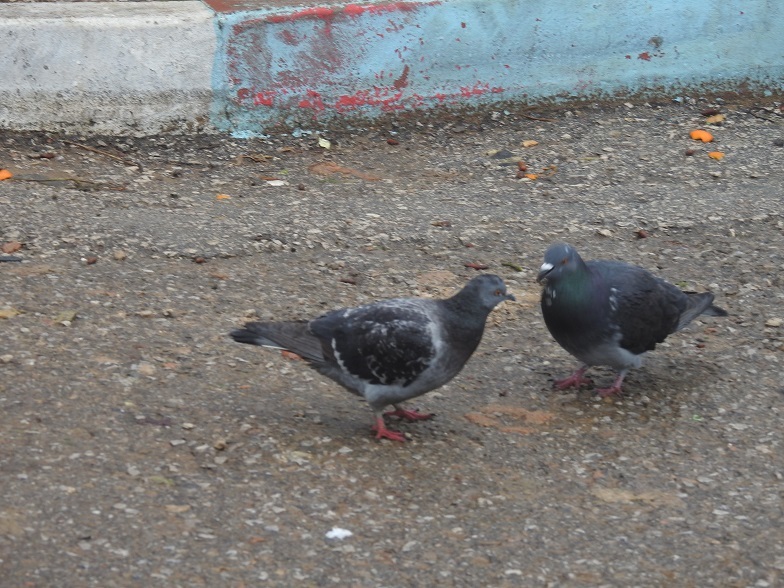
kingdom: Animalia
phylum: Chordata
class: Aves
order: Columbiformes
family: Columbidae
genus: Columba
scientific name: Columba livia
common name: Rock pigeon
